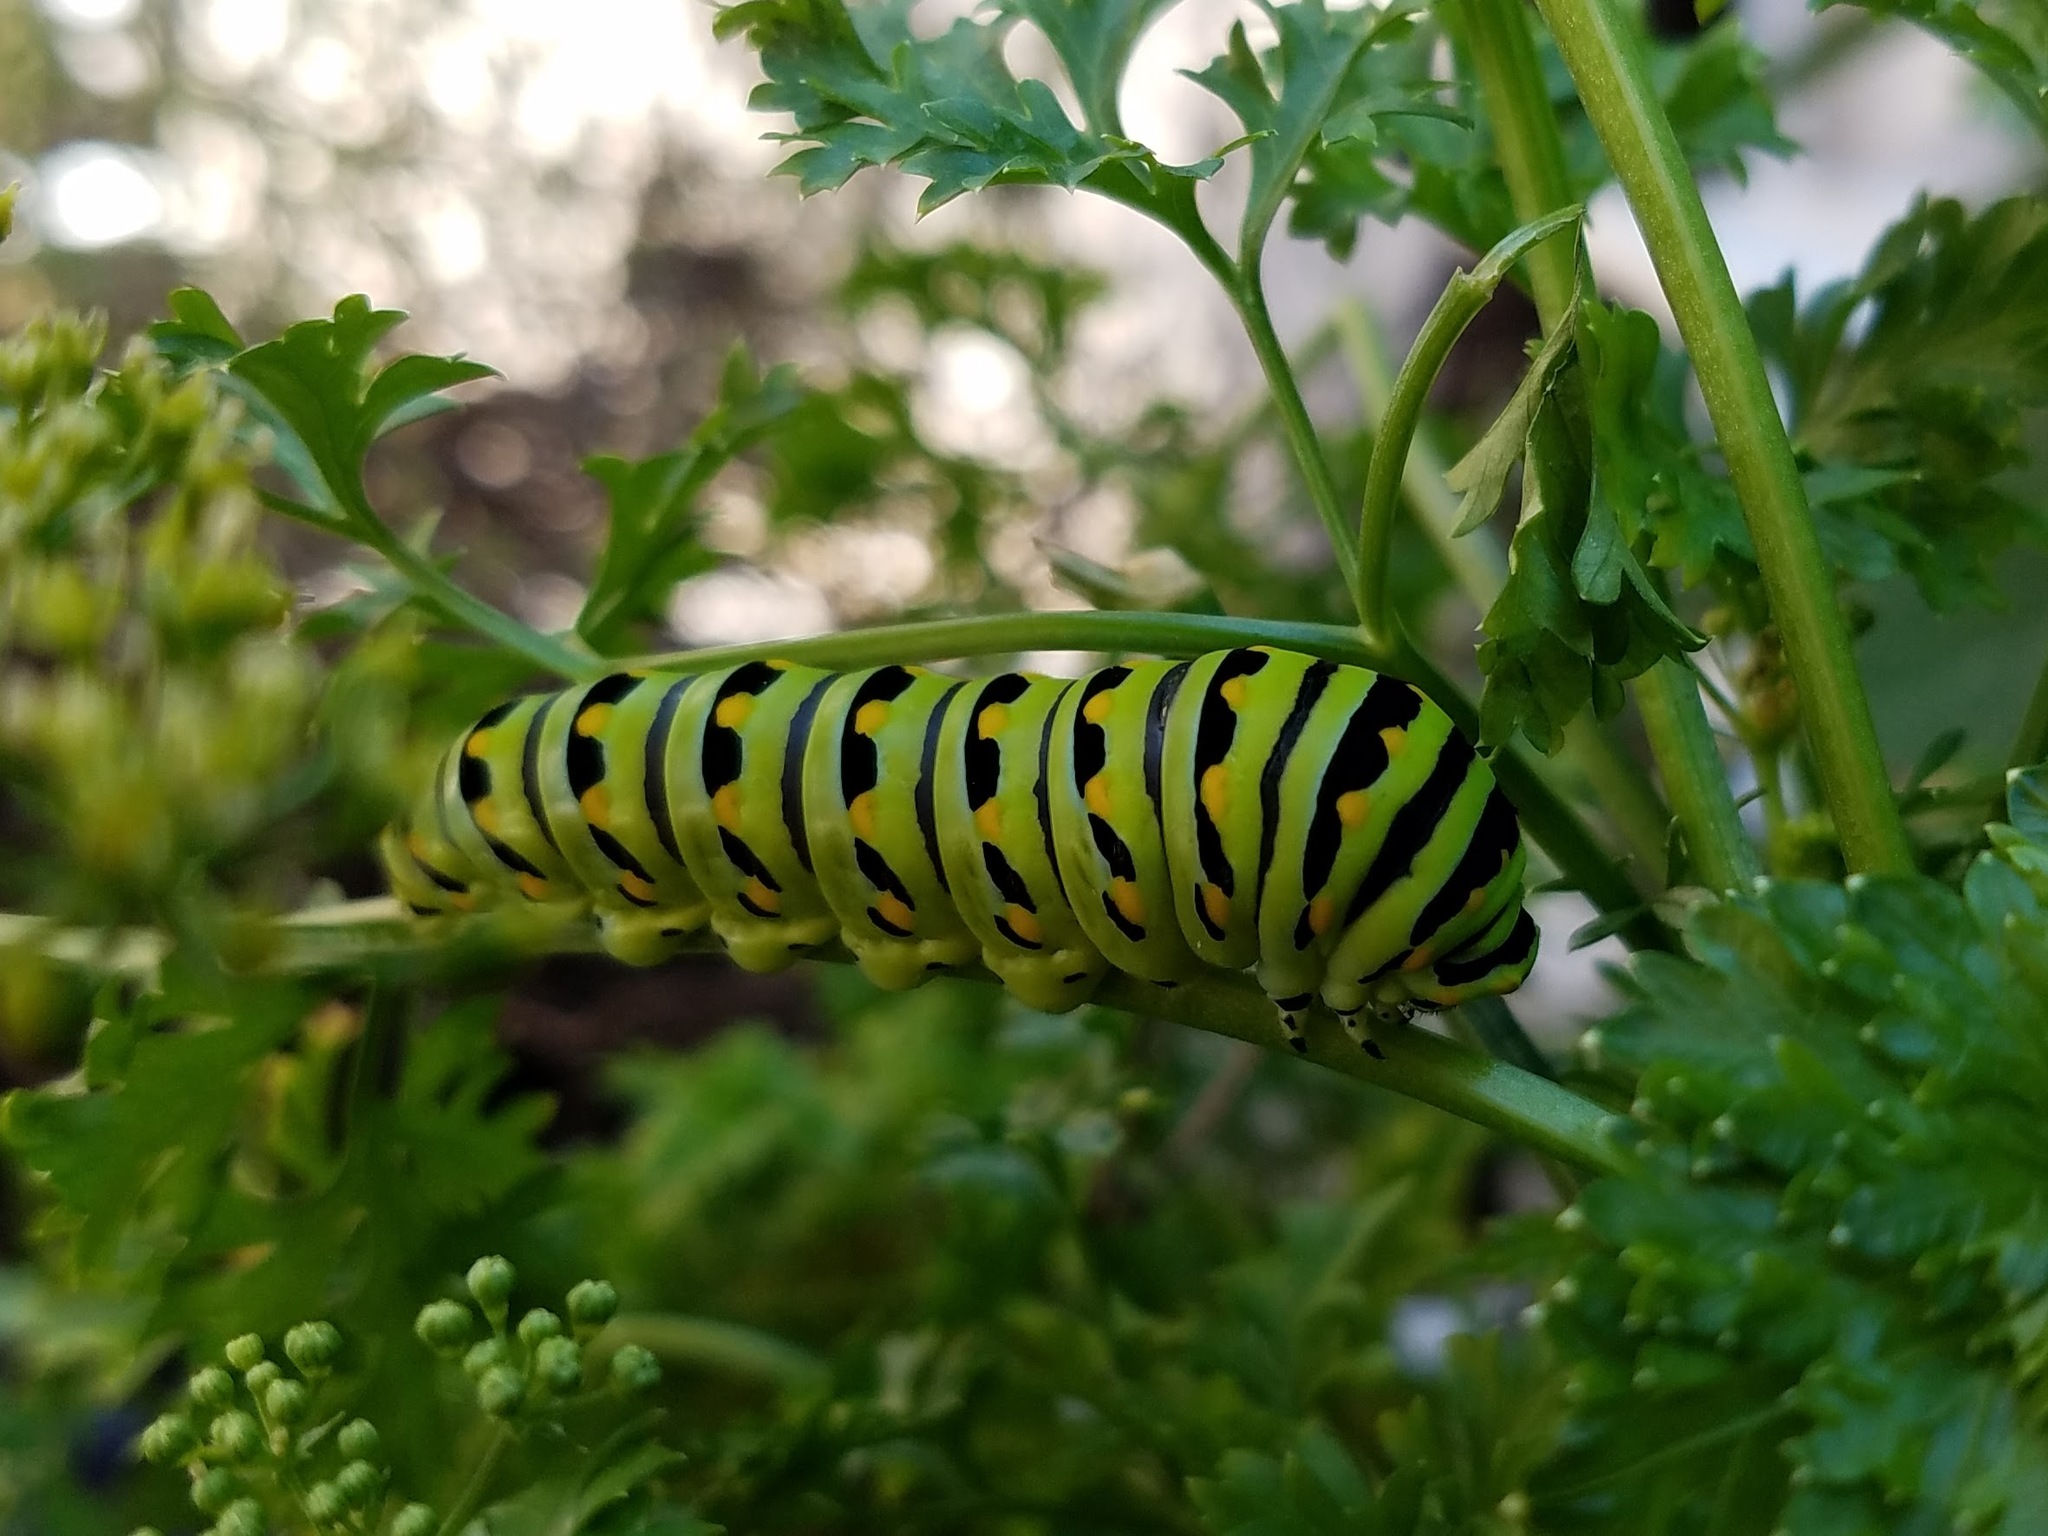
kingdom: Animalia
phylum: Arthropoda
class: Insecta
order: Lepidoptera
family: Papilionidae
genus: Papilio
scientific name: Papilio polyxenes
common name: Black swallowtail
